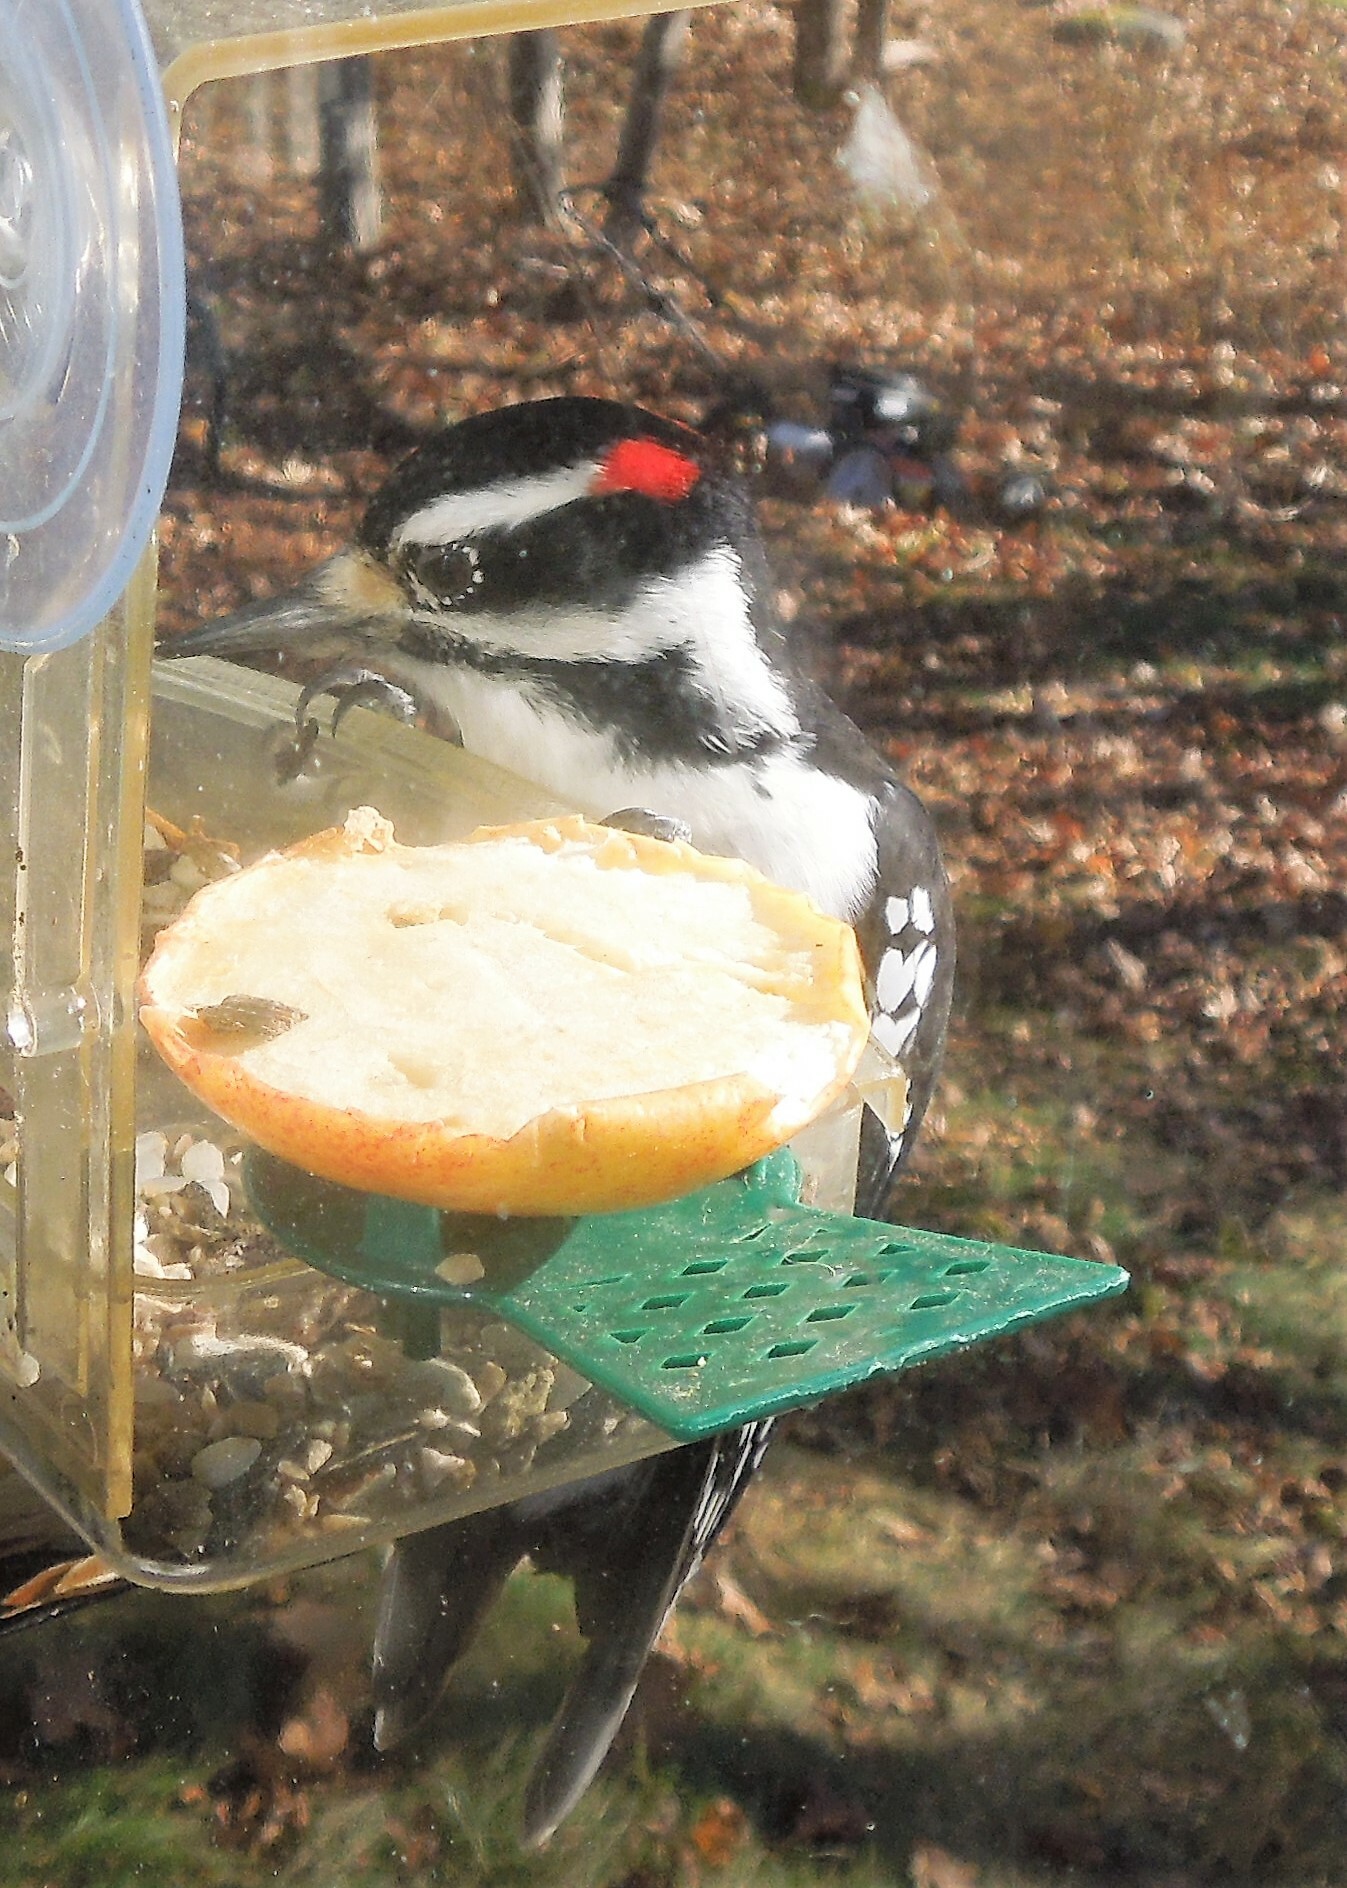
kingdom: Animalia
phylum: Chordata
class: Aves
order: Piciformes
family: Picidae
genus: Leuconotopicus
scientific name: Leuconotopicus villosus
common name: Hairy woodpecker
